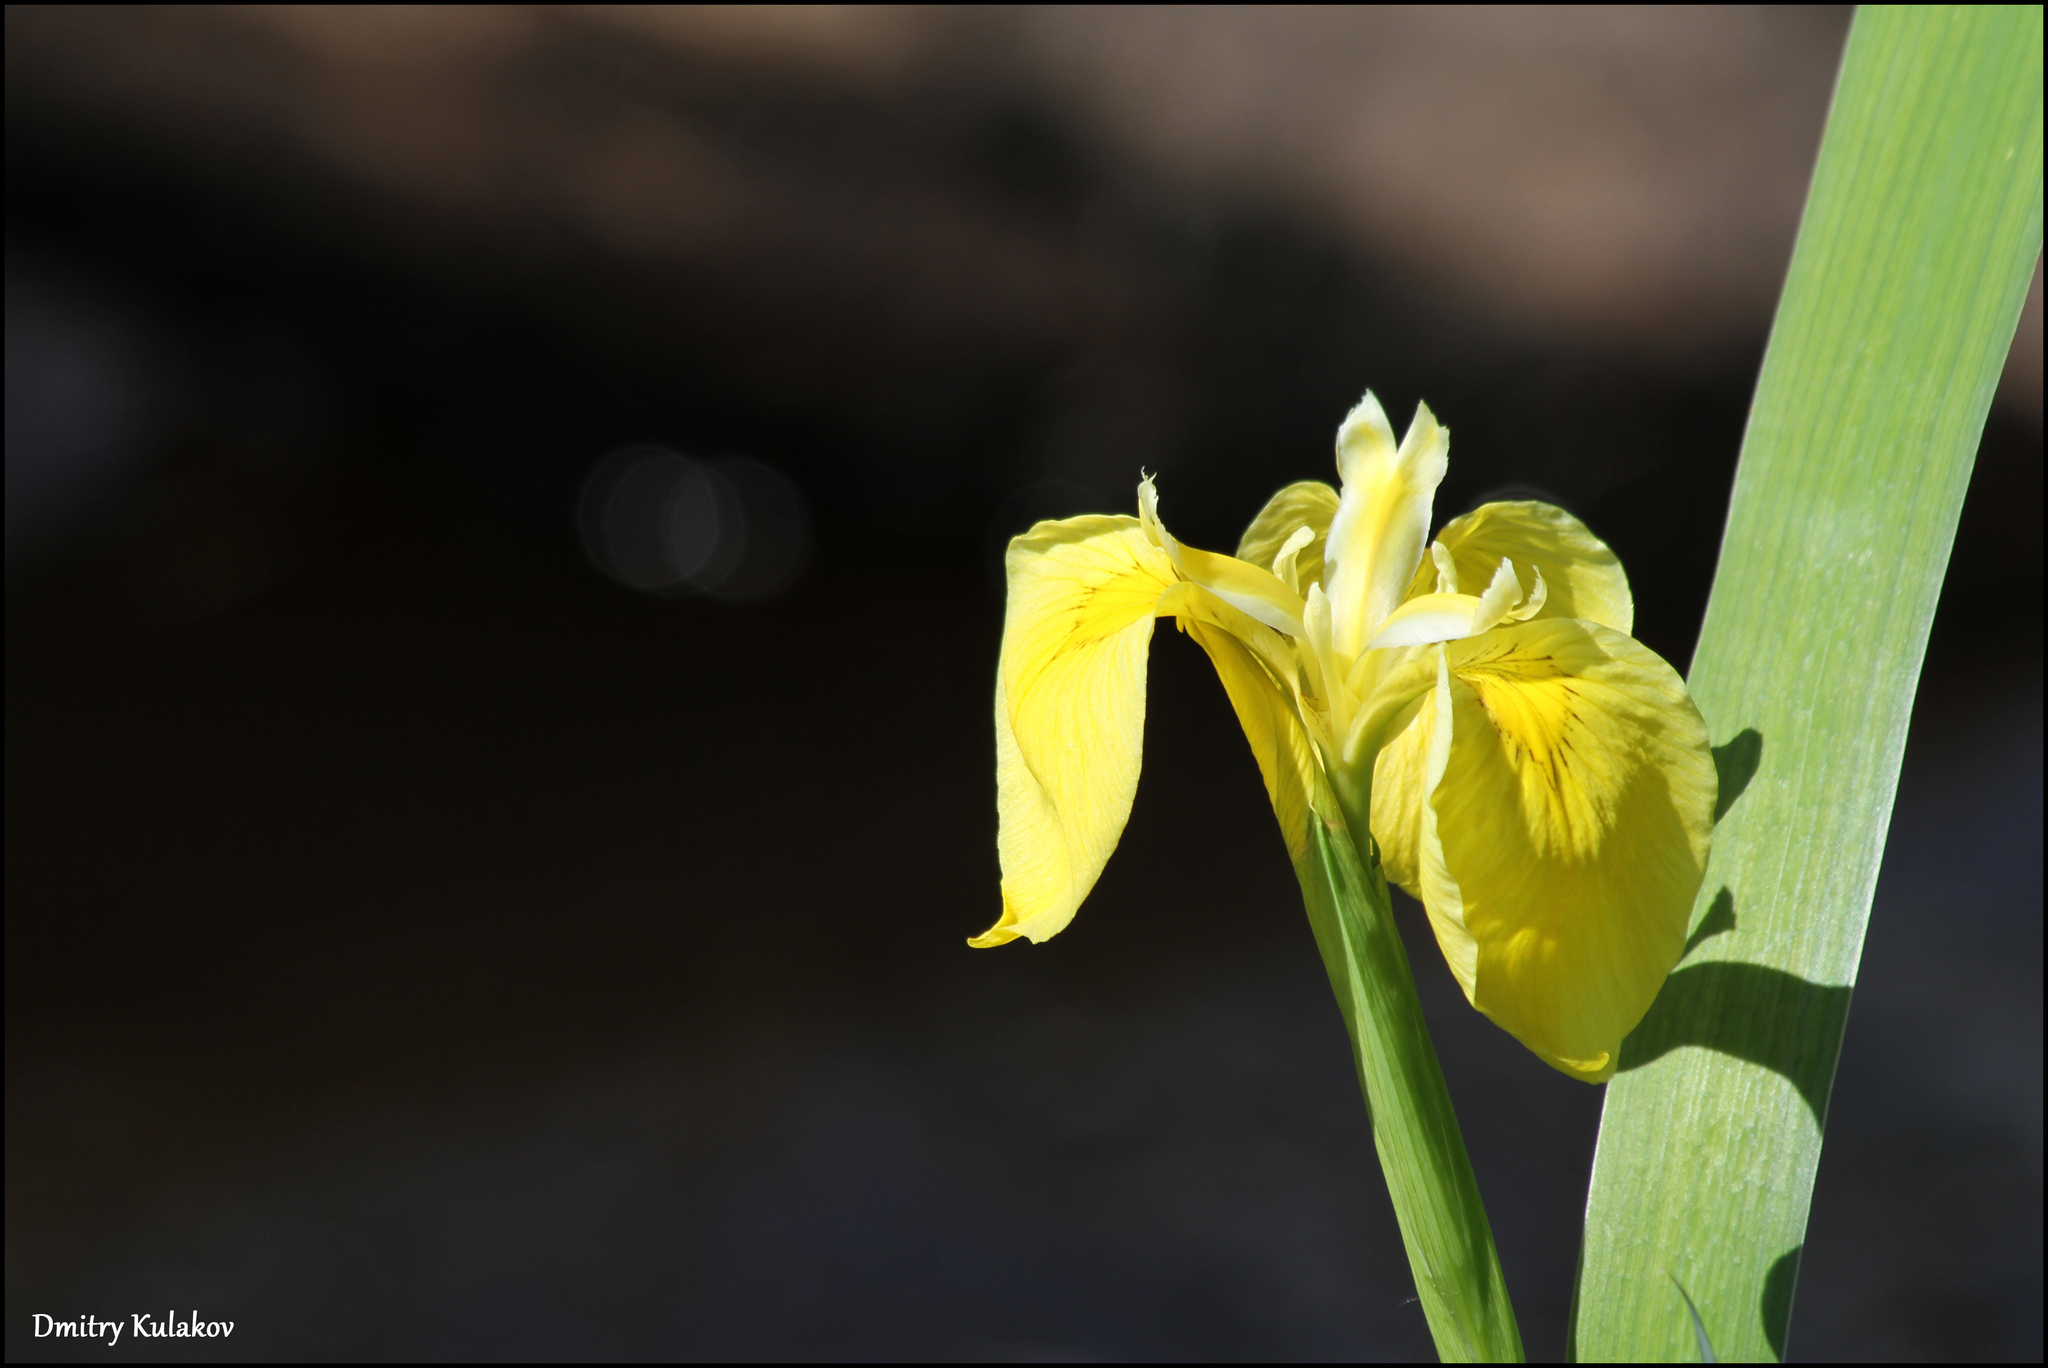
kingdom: Plantae
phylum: Tracheophyta
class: Liliopsida
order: Asparagales
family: Iridaceae
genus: Iris
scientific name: Iris pseudacorus
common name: Yellow flag
